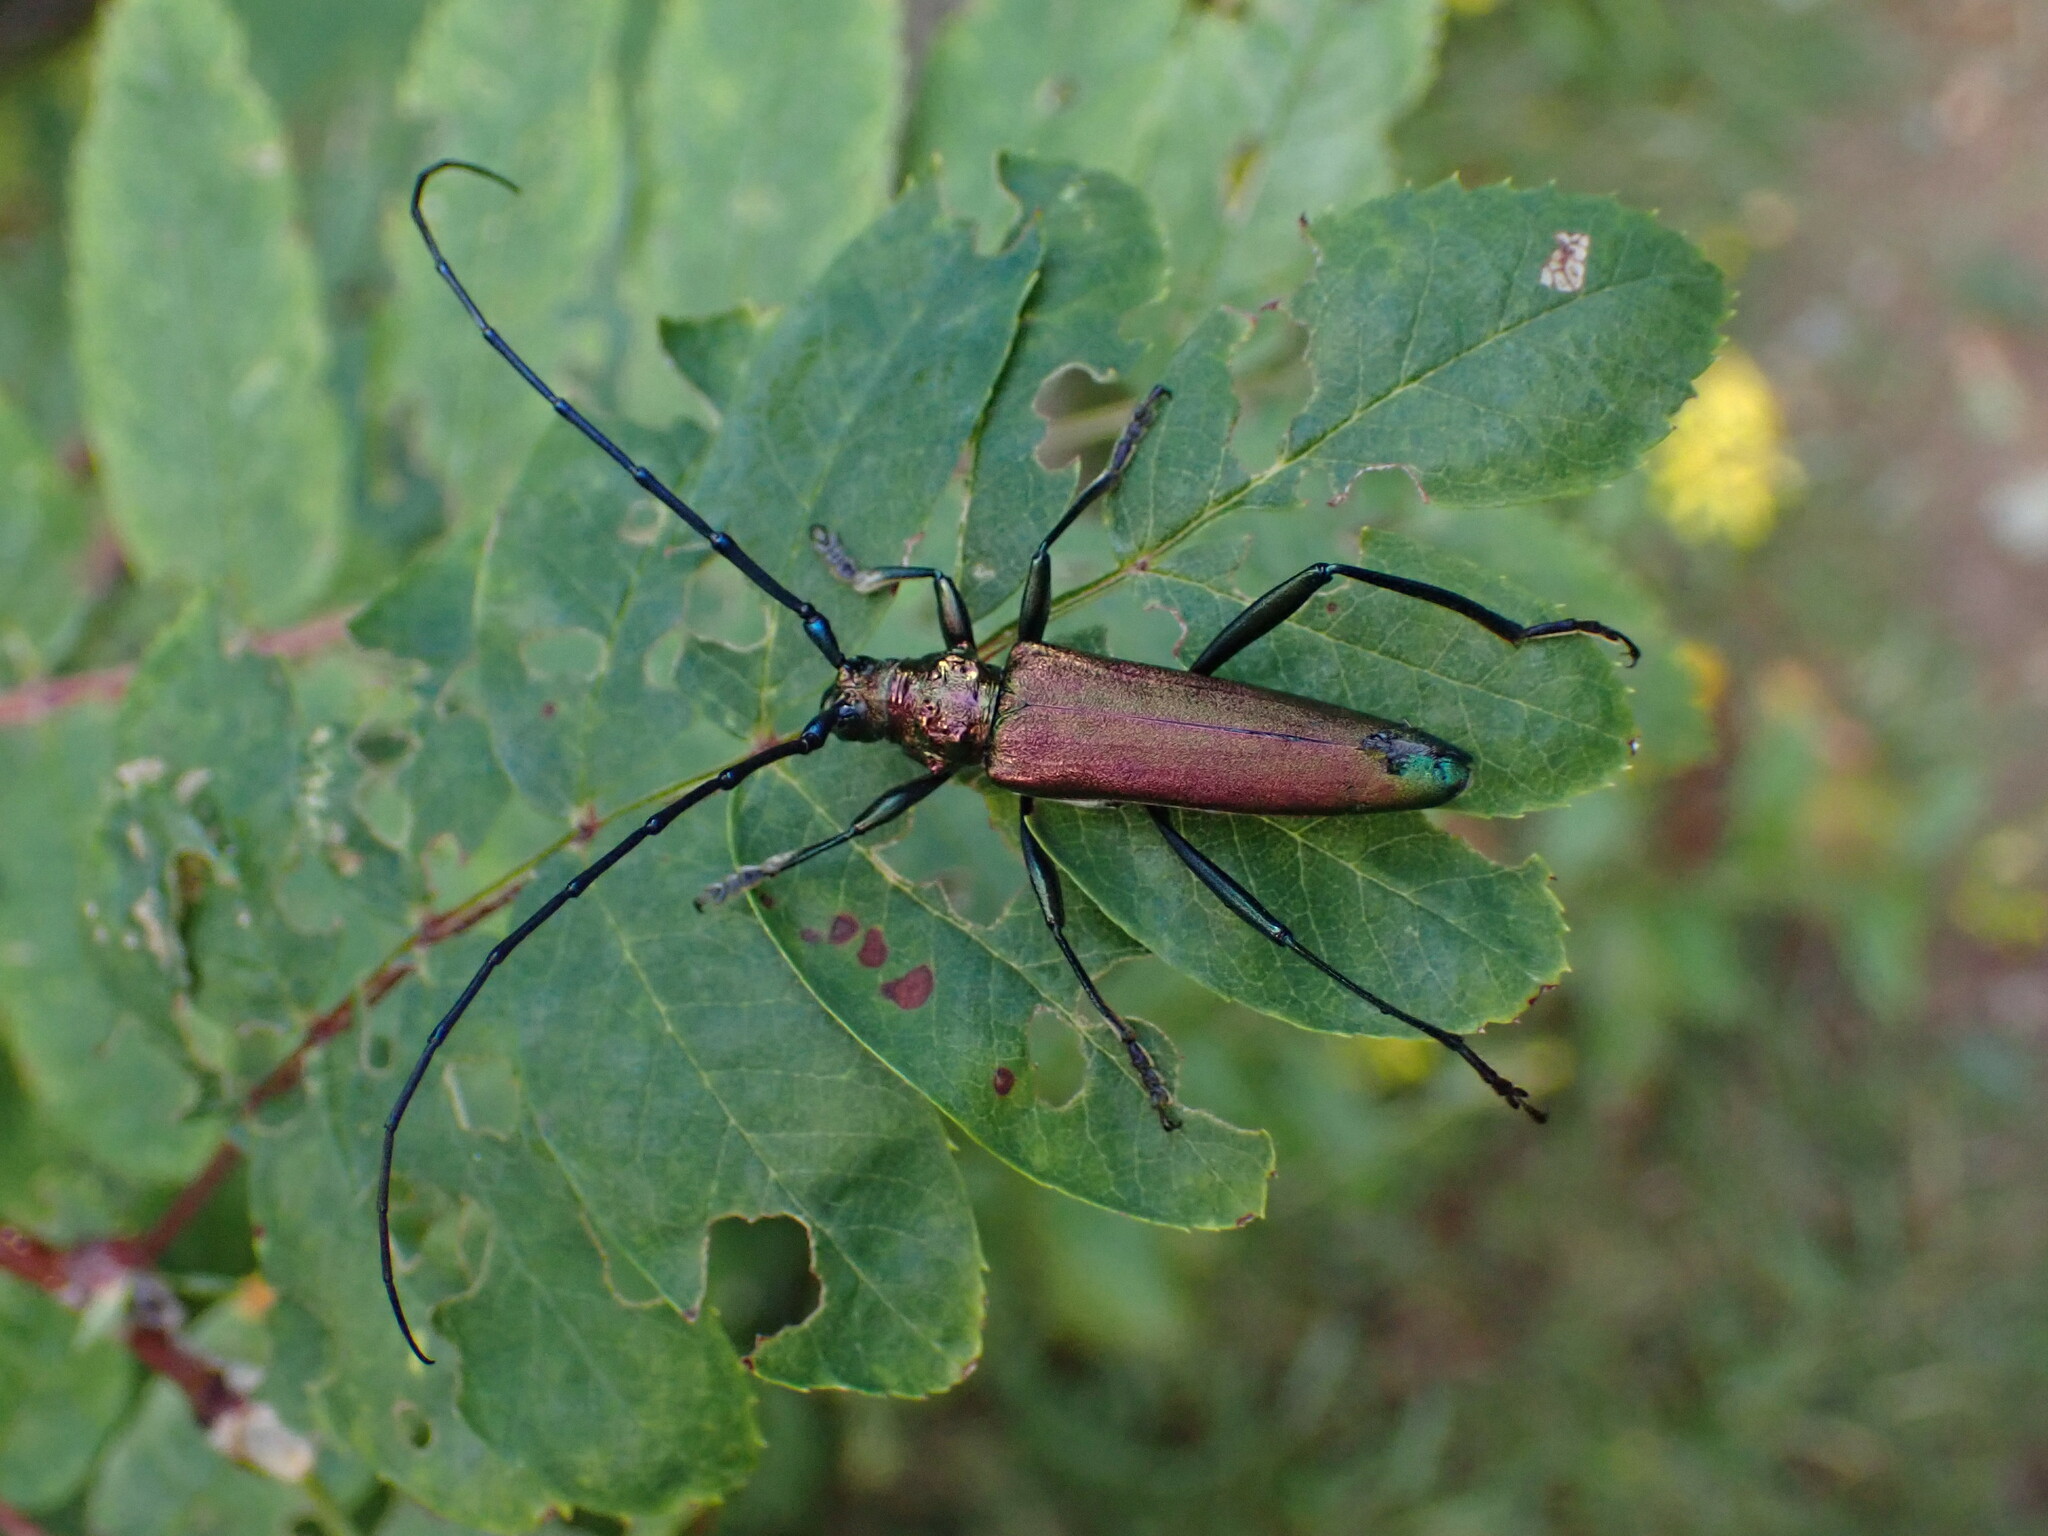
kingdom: Animalia
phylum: Arthropoda
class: Insecta
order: Coleoptera
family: Cerambycidae
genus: Aromia
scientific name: Aromia moschata
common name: Musk beetle
